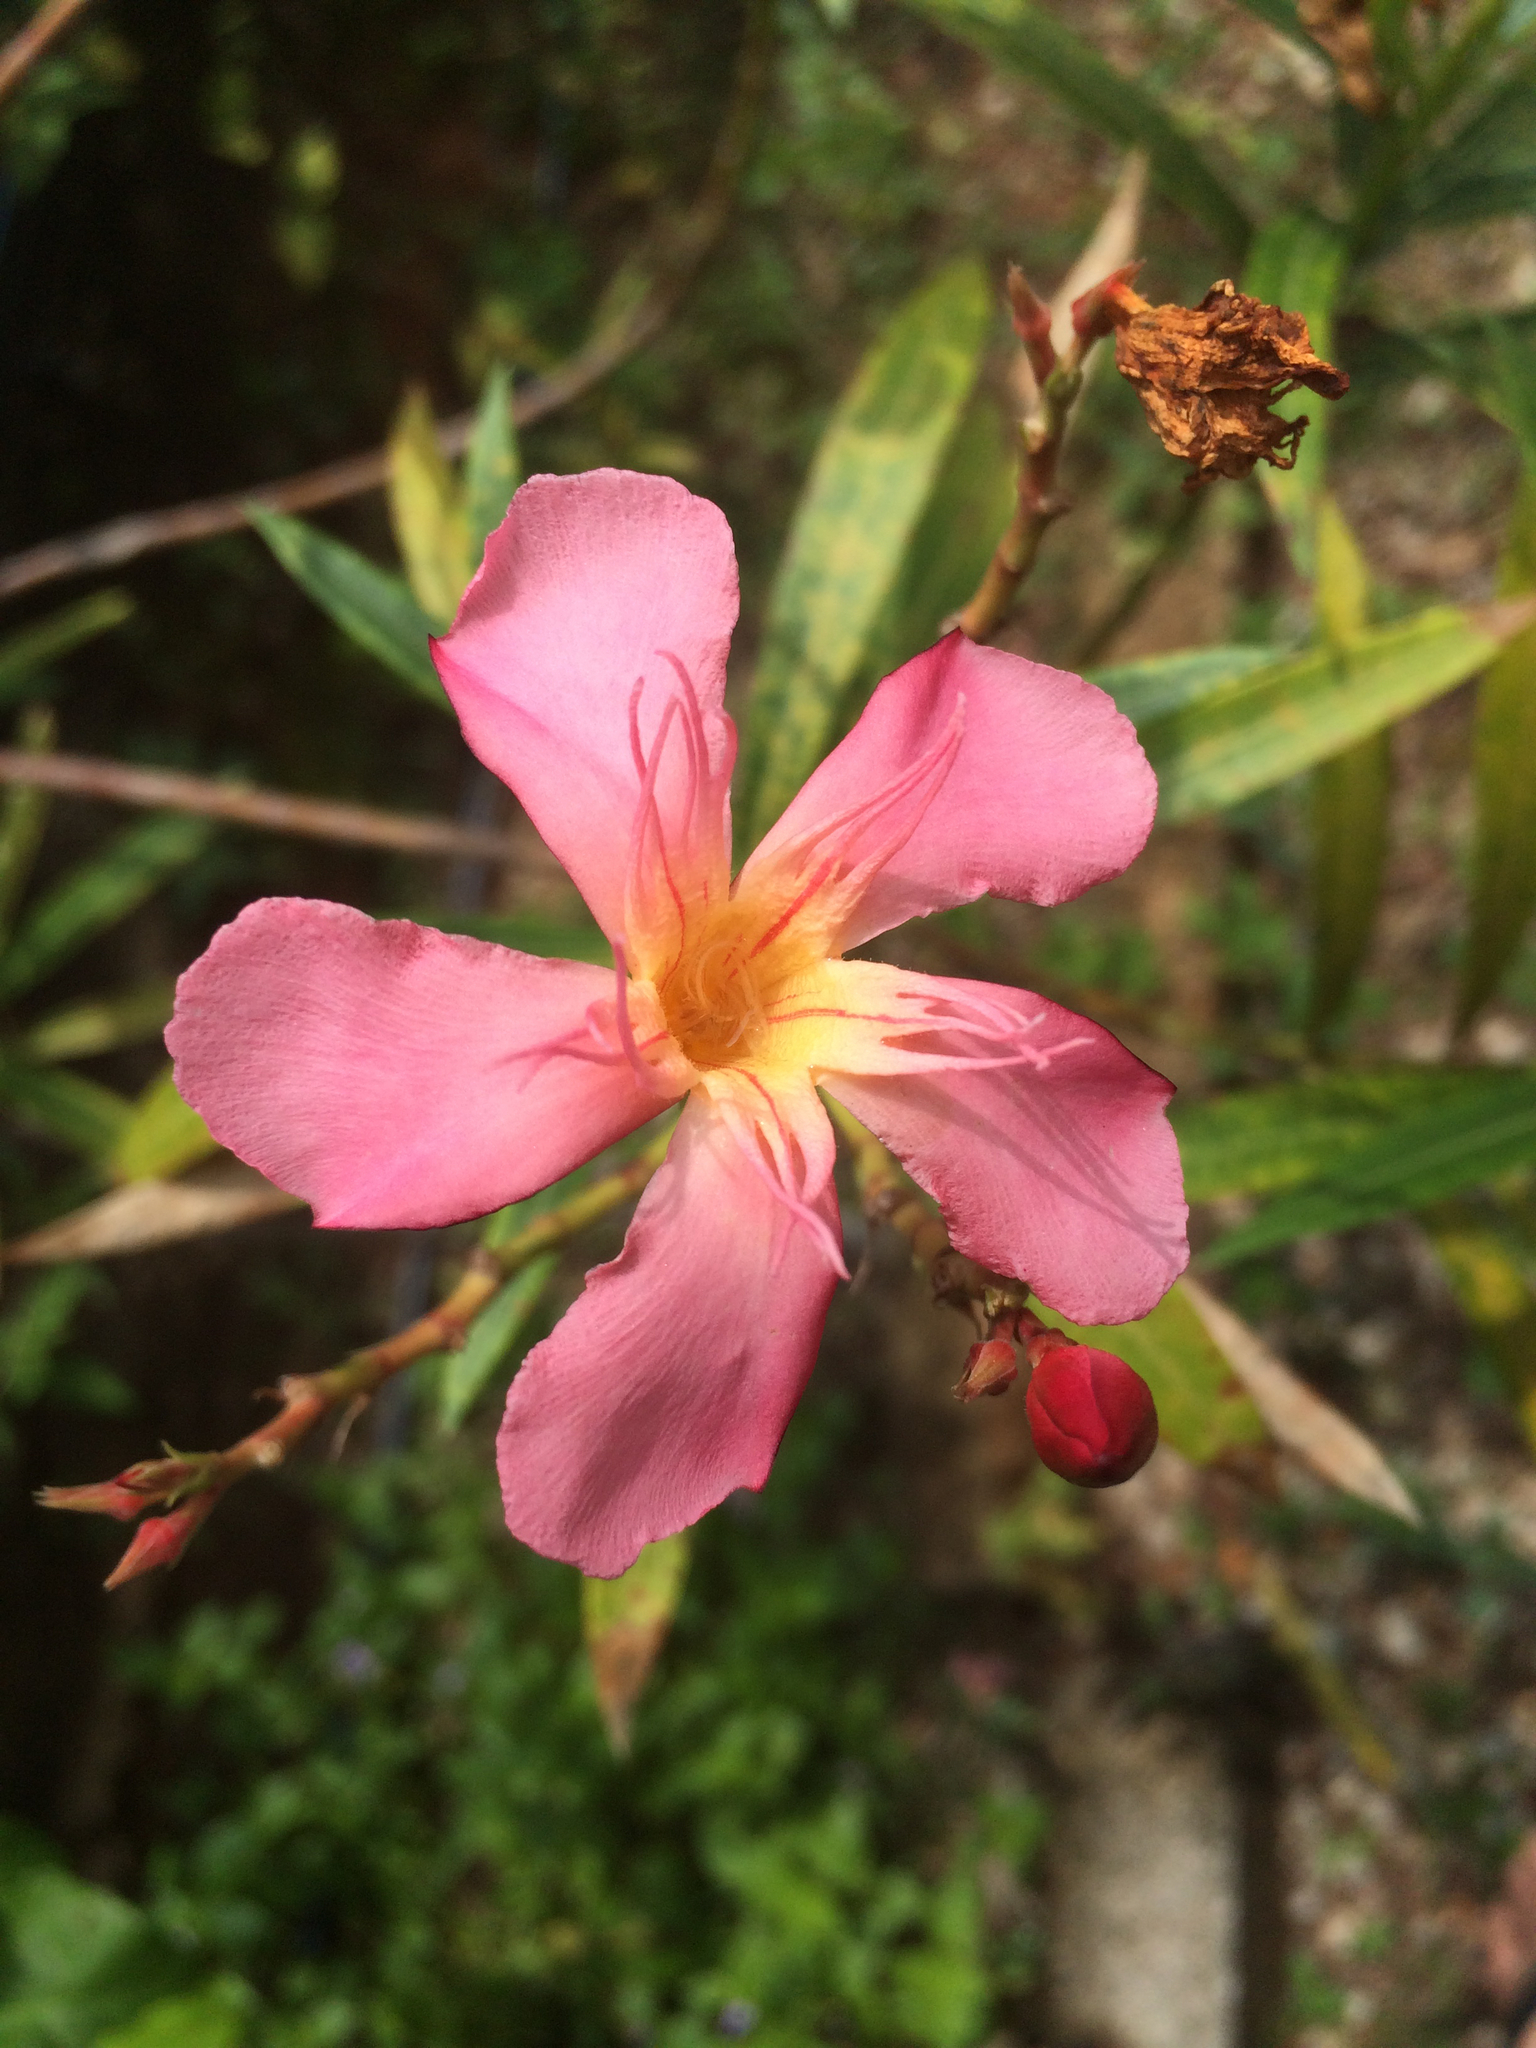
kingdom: Plantae
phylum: Tracheophyta
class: Magnoliopsida
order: Gentianales
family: Apocynaceae
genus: Nerium
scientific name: Nerium oleander
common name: Oleander
